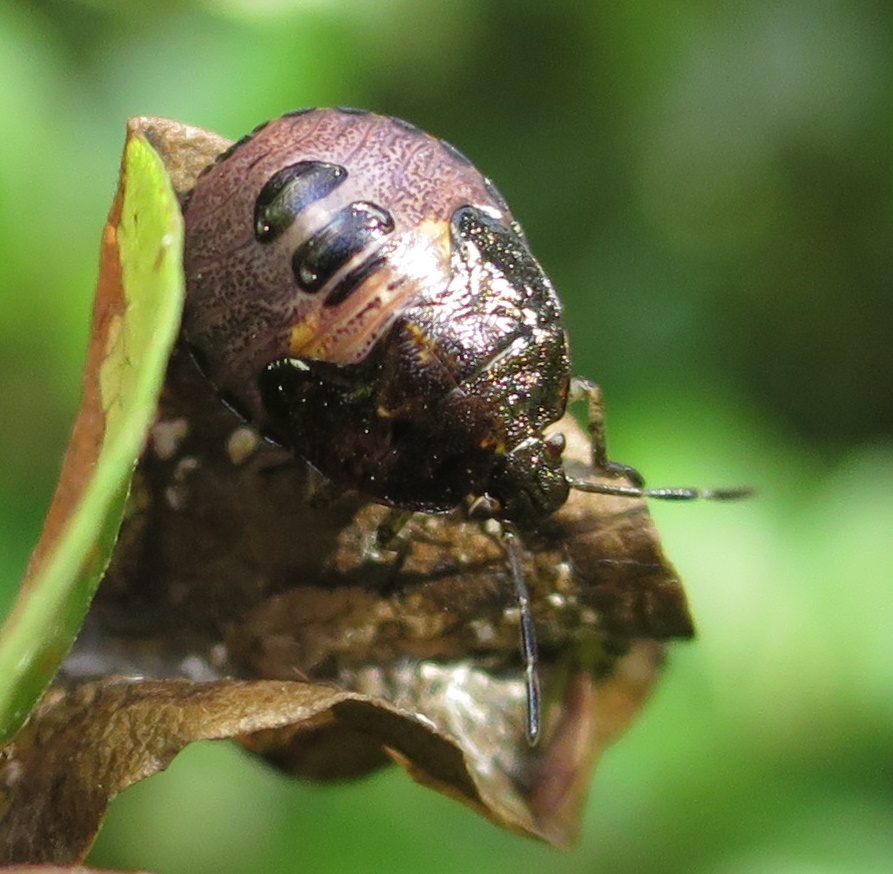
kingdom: Animalia
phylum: Arthropoda
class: Insecta
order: Hemiptera
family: Pentatomidae
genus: Monteithiella
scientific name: Monteithiella
